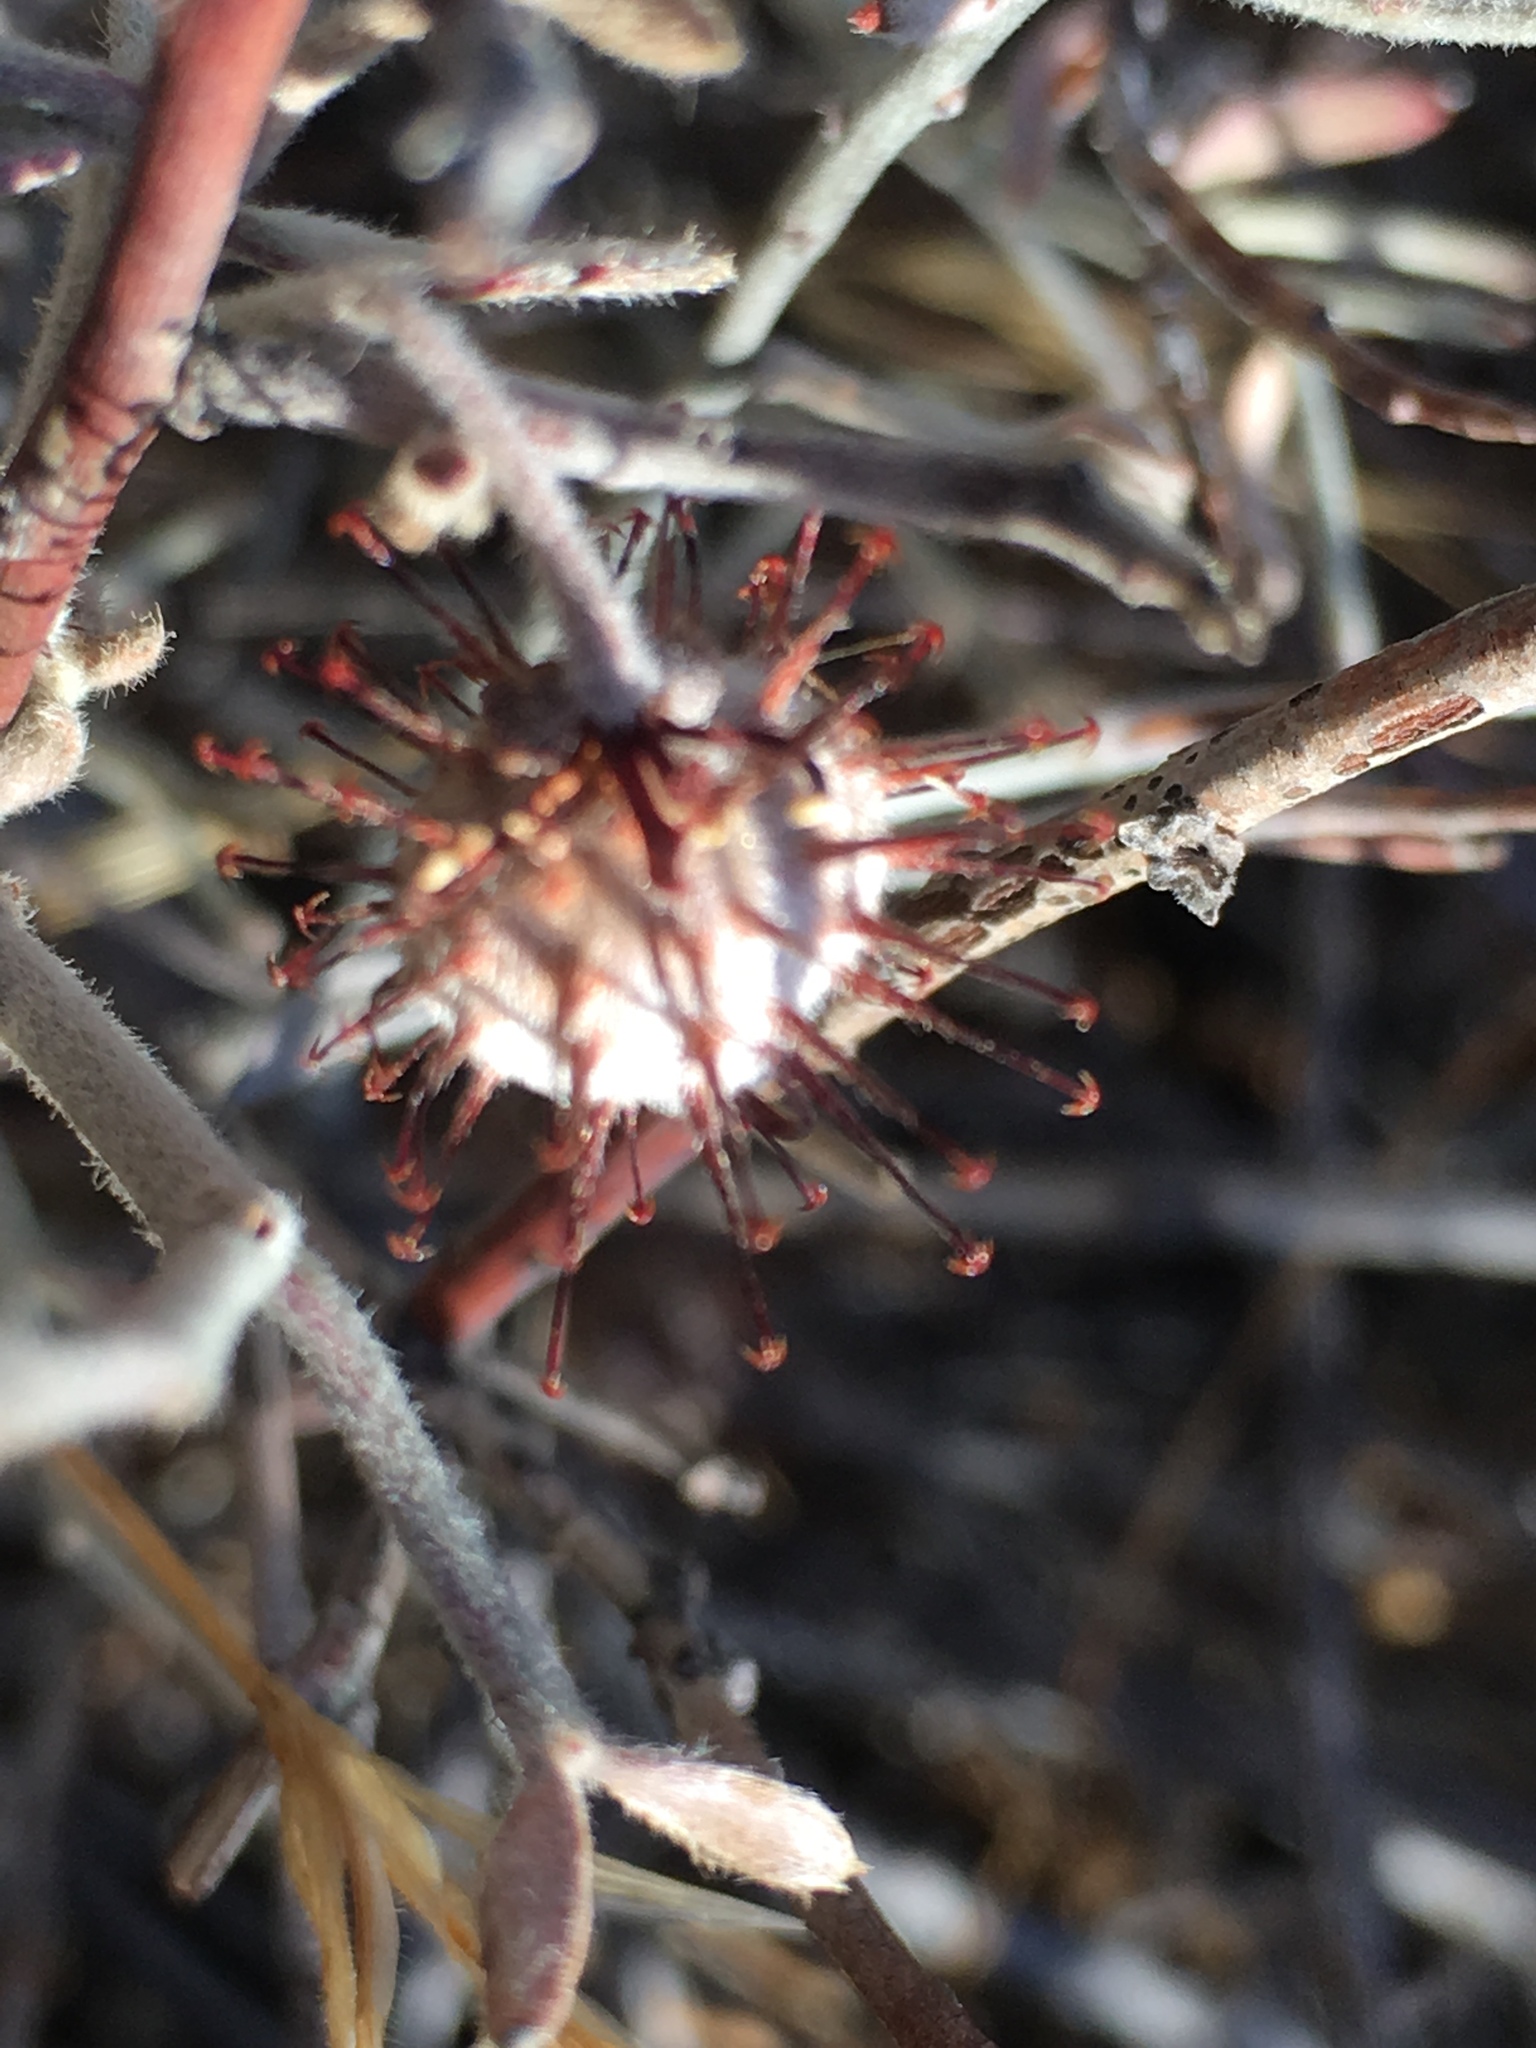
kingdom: Plantae
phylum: Tracheophyta
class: Magnoliopsida
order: Zygophyllales
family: Krameriaceae
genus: Krameria
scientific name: Krameria bicolor
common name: White ratany
